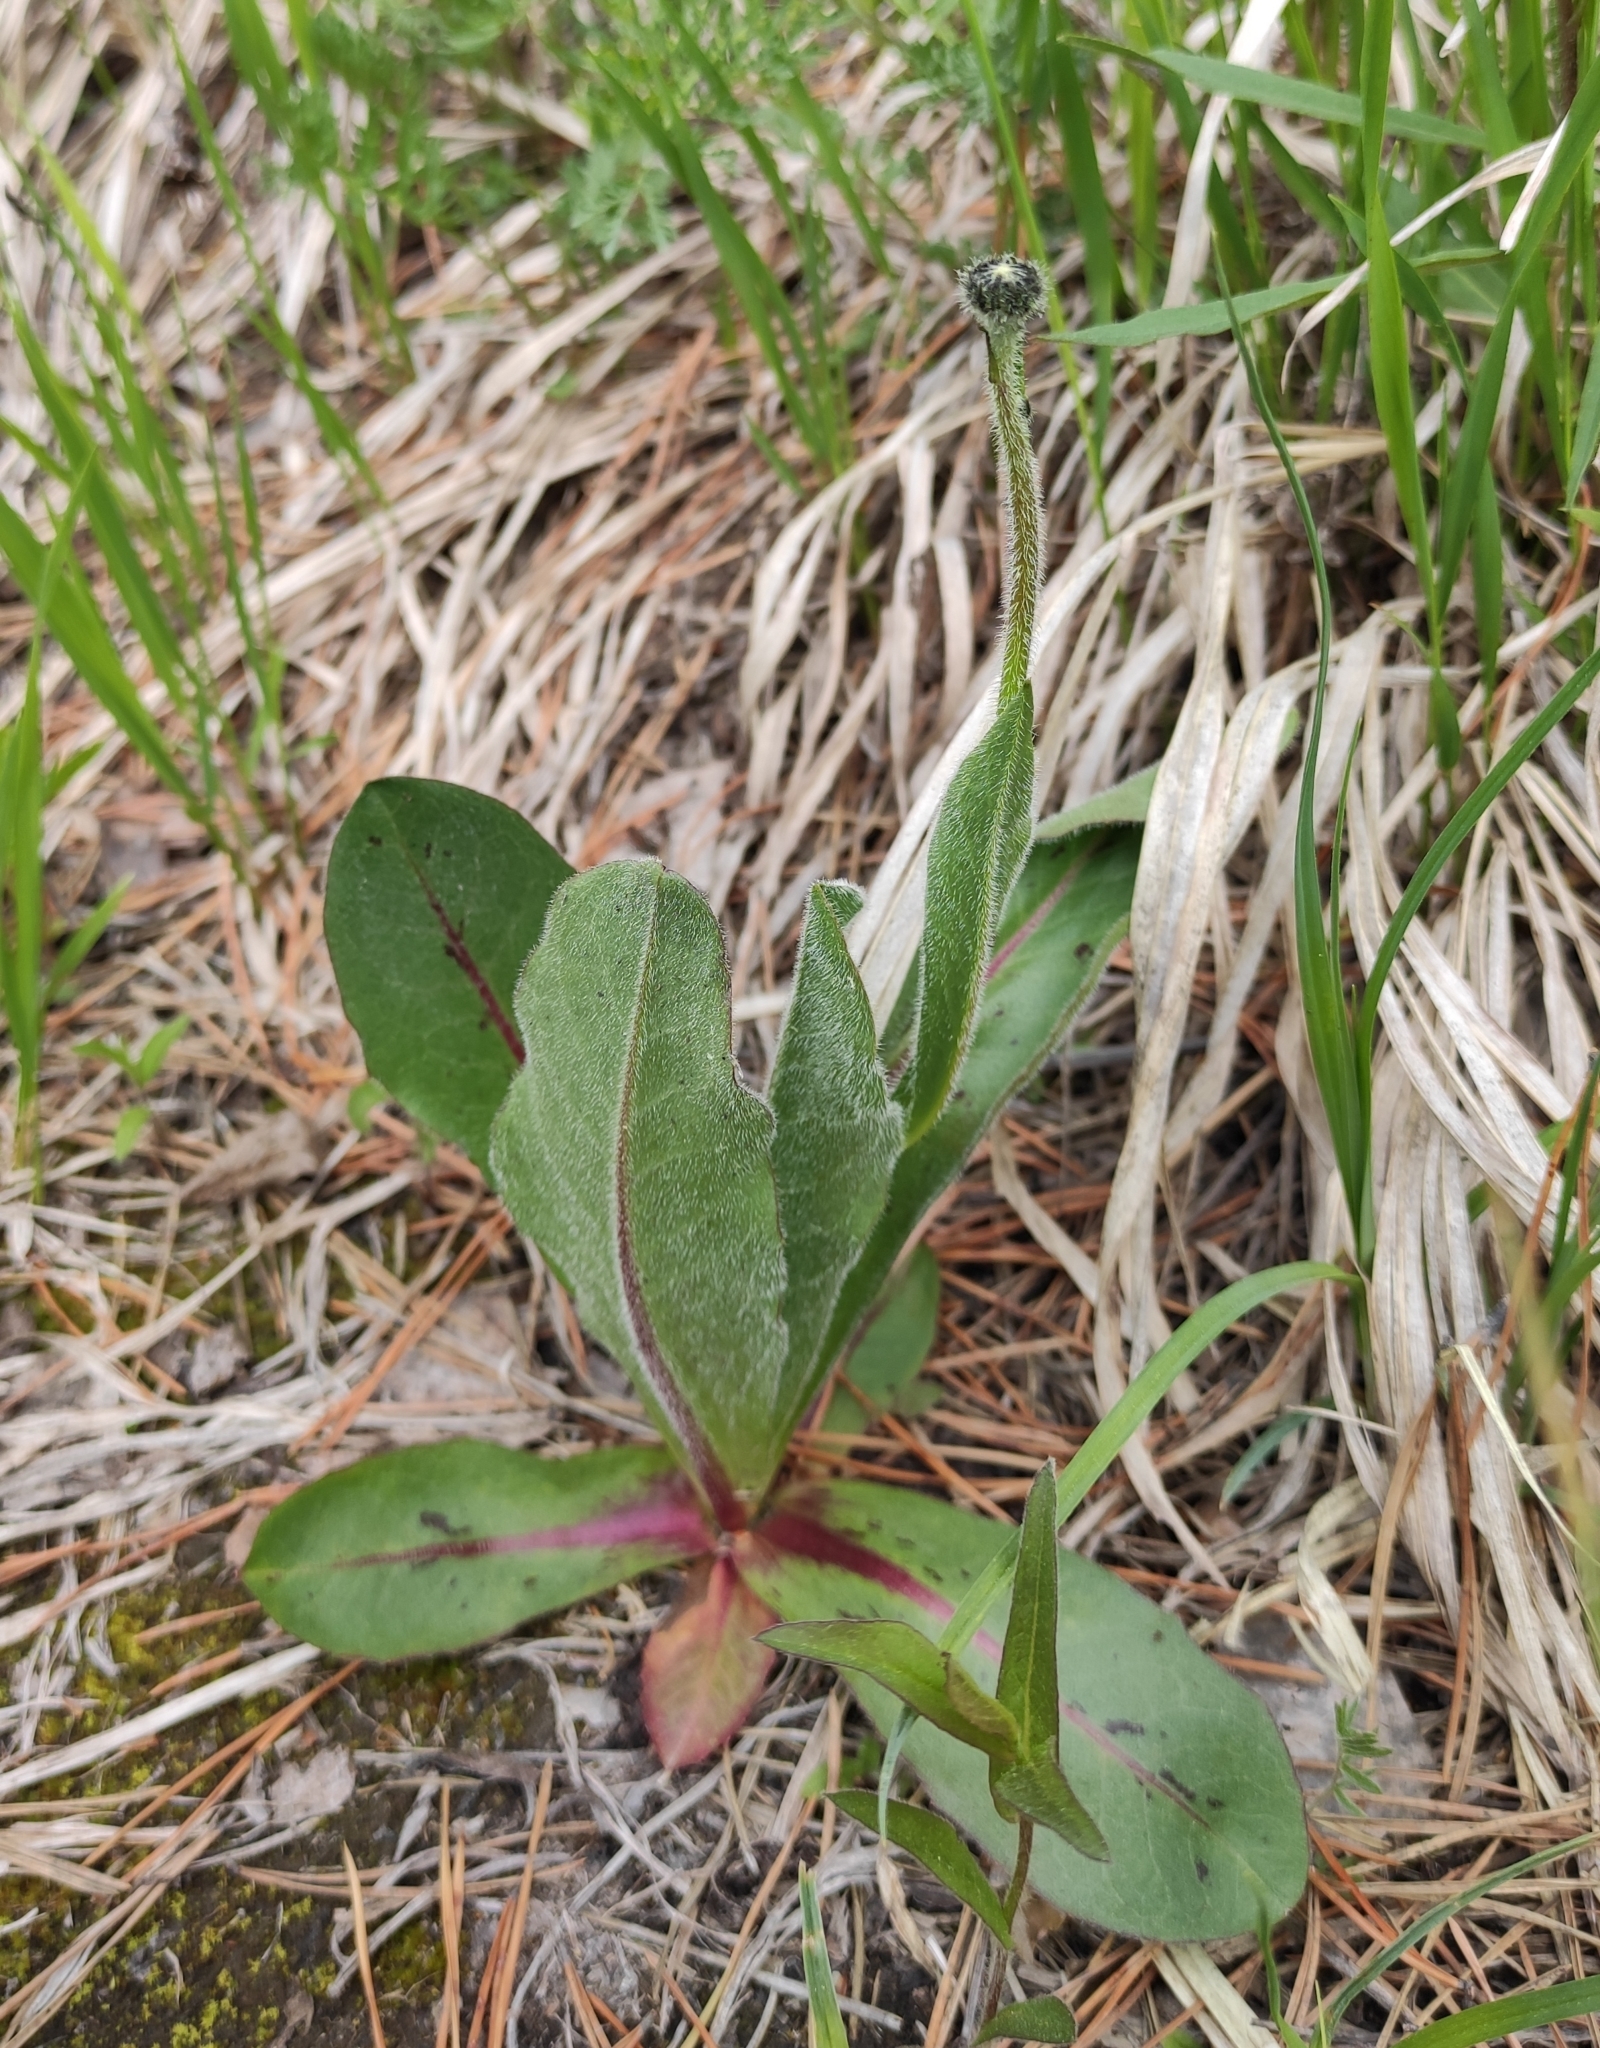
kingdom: Plantae
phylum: Tracheophyta
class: Magnoliopsida
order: Asterales
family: Asteraceae
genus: Trommsdorffia
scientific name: Trommsdorffia maculata
